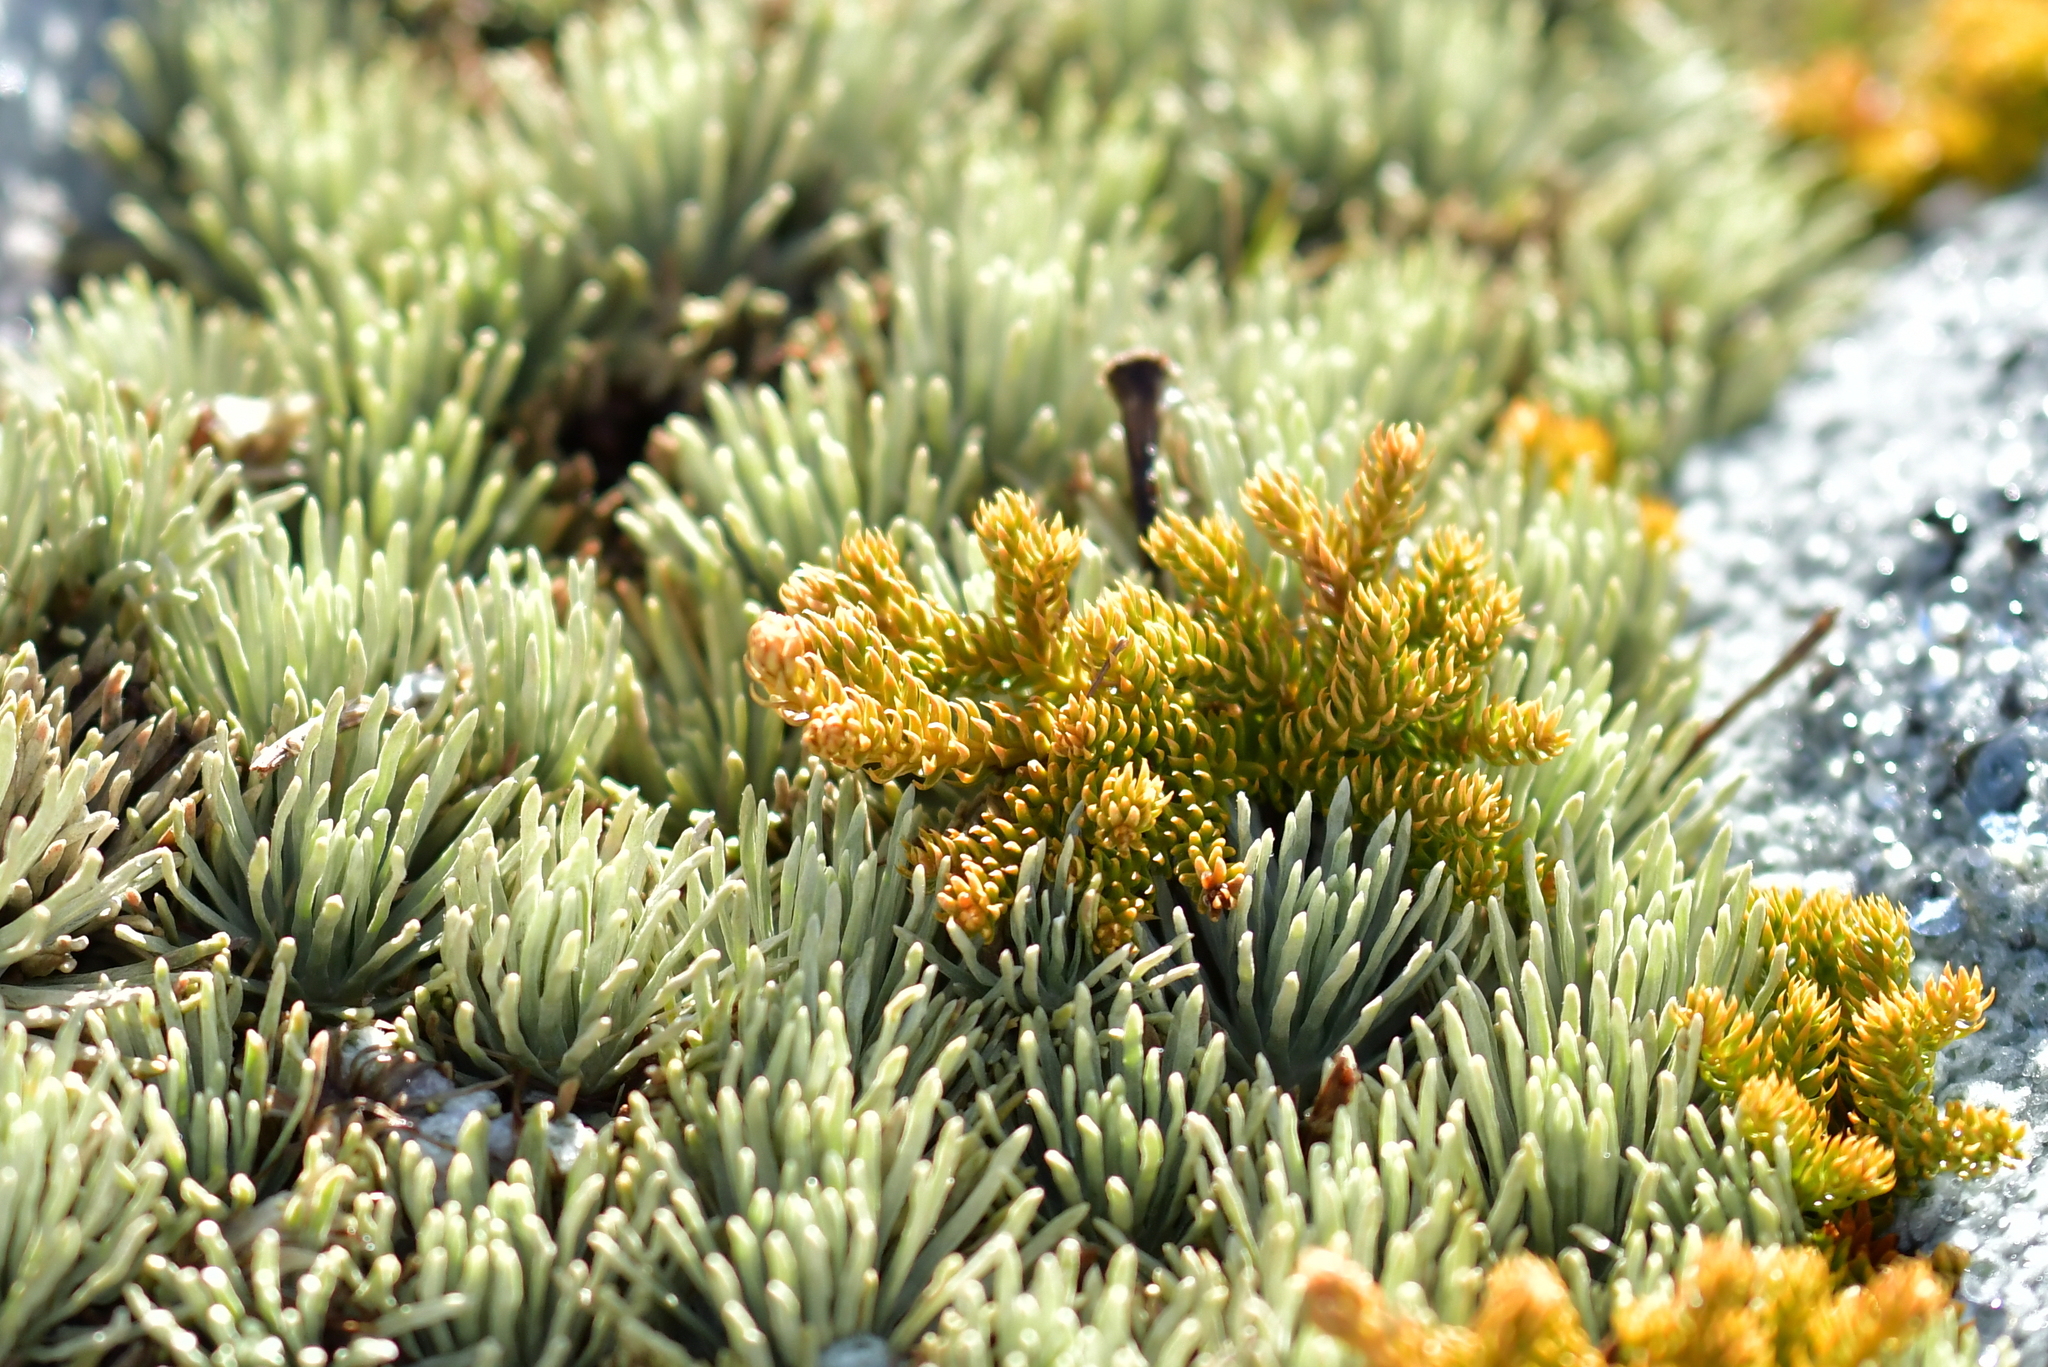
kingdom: Plantae
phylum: Tracheophyta
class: Lycopodiopsida
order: Lycopodiales
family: Lycopodiaceae
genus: Austrolycopodium
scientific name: Austrolycopodium fastigiatum
